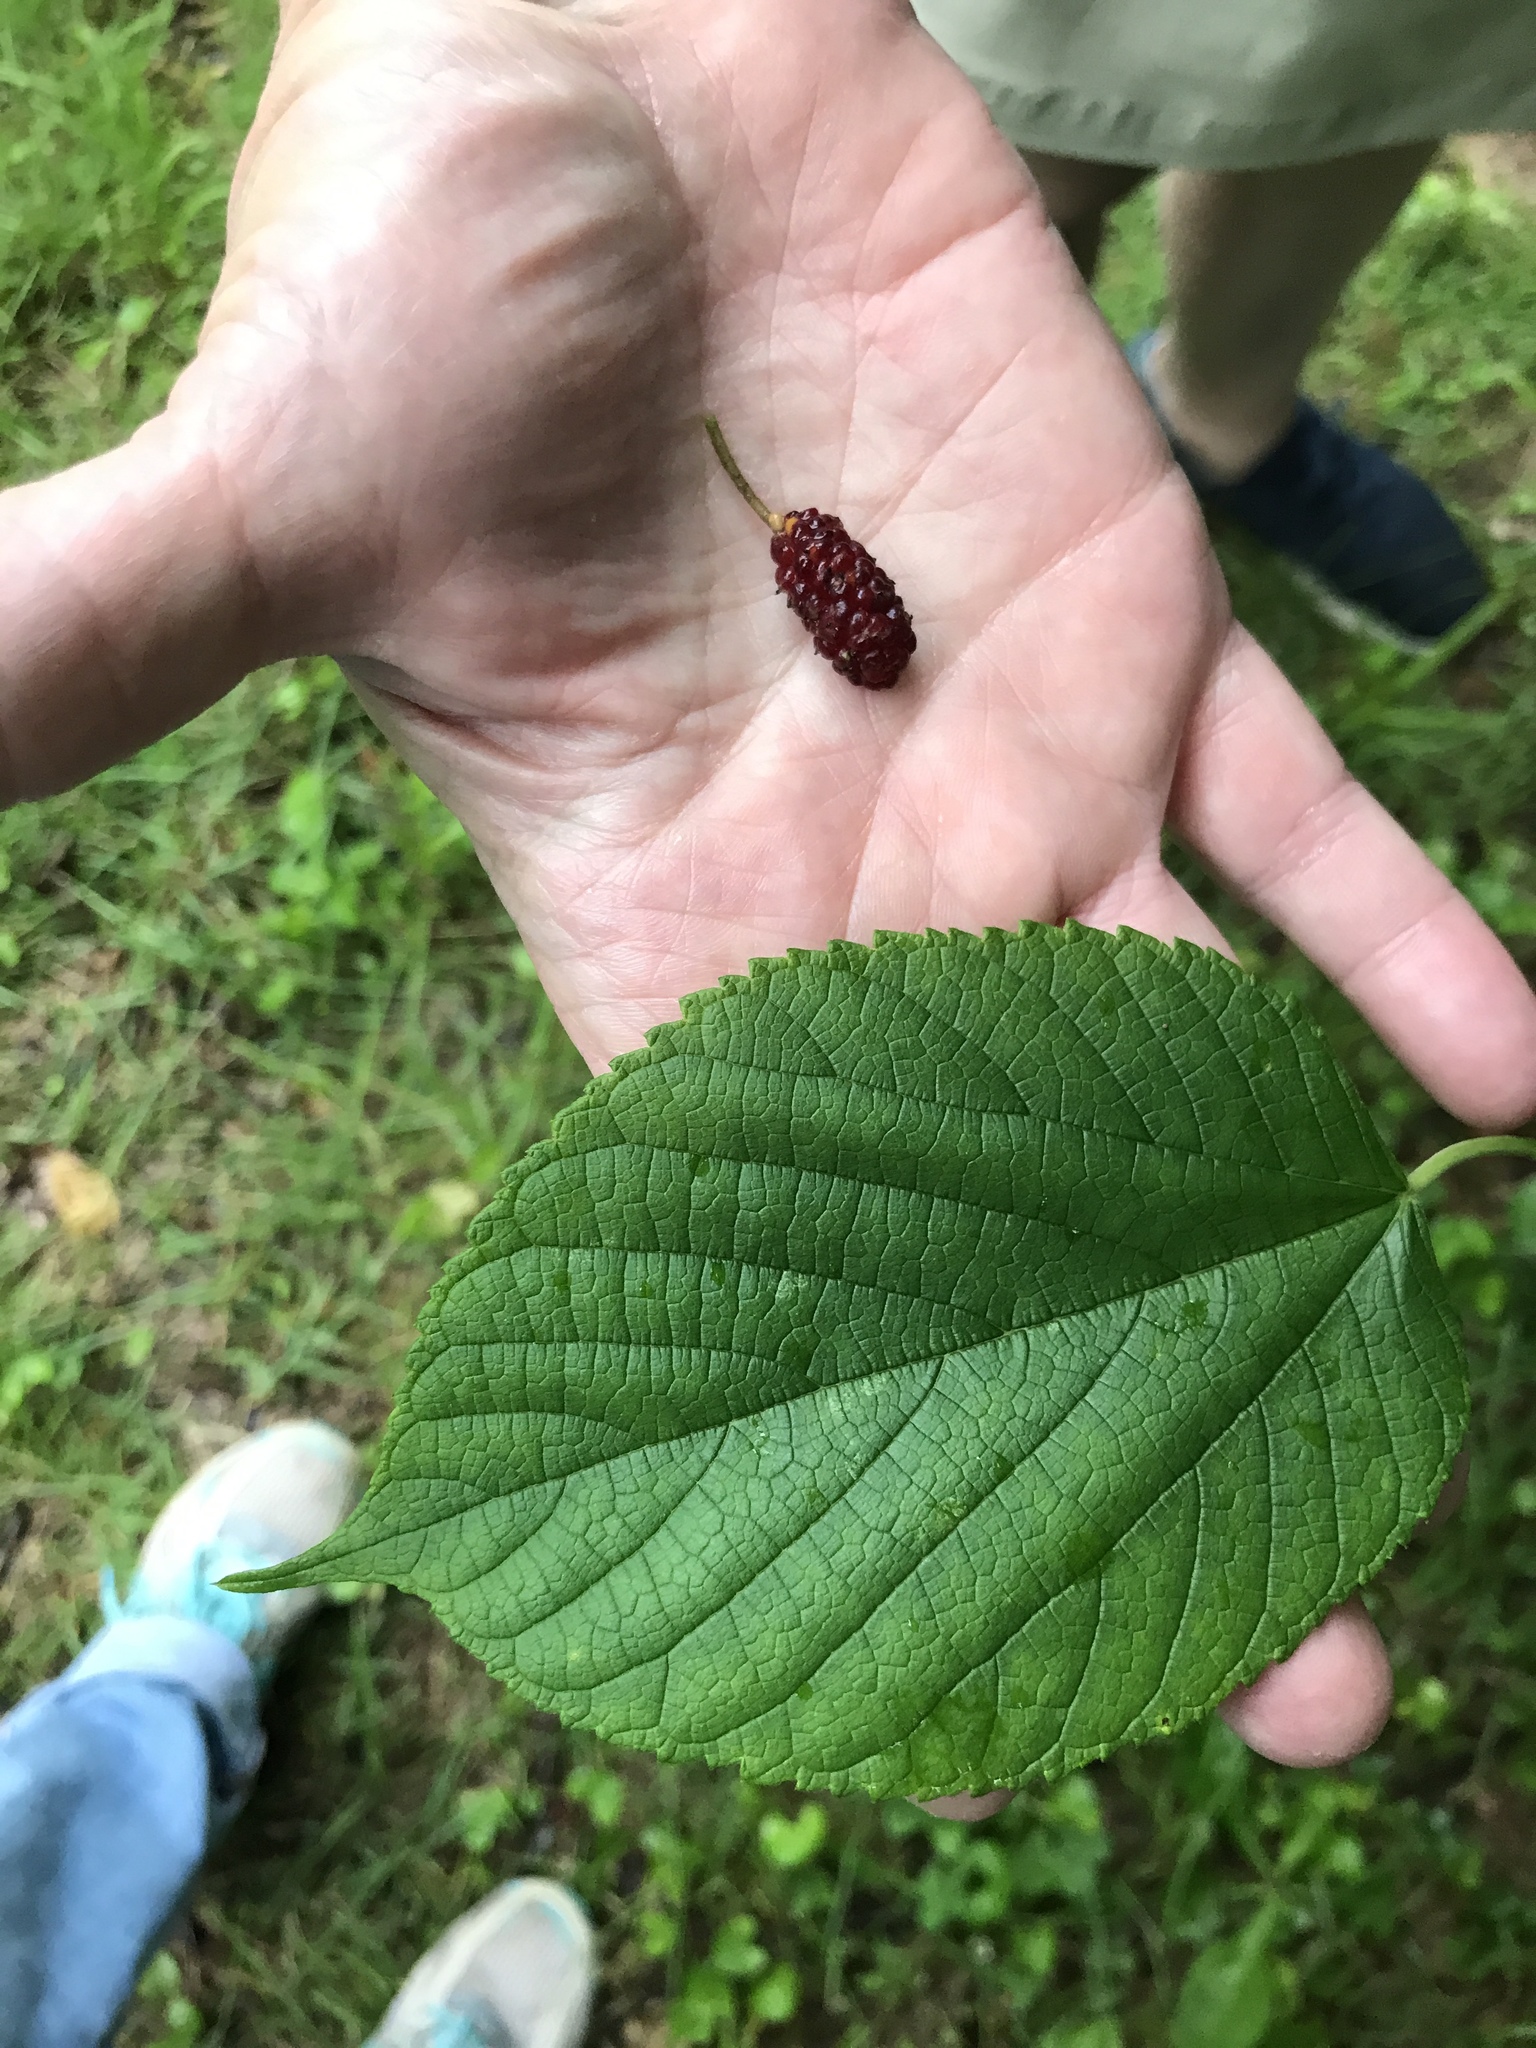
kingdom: Plantae
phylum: Tracheophyta
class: Magnoliopsida
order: Rosales
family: Moraceae
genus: Morus
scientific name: Morus rubra
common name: Red mulberry
